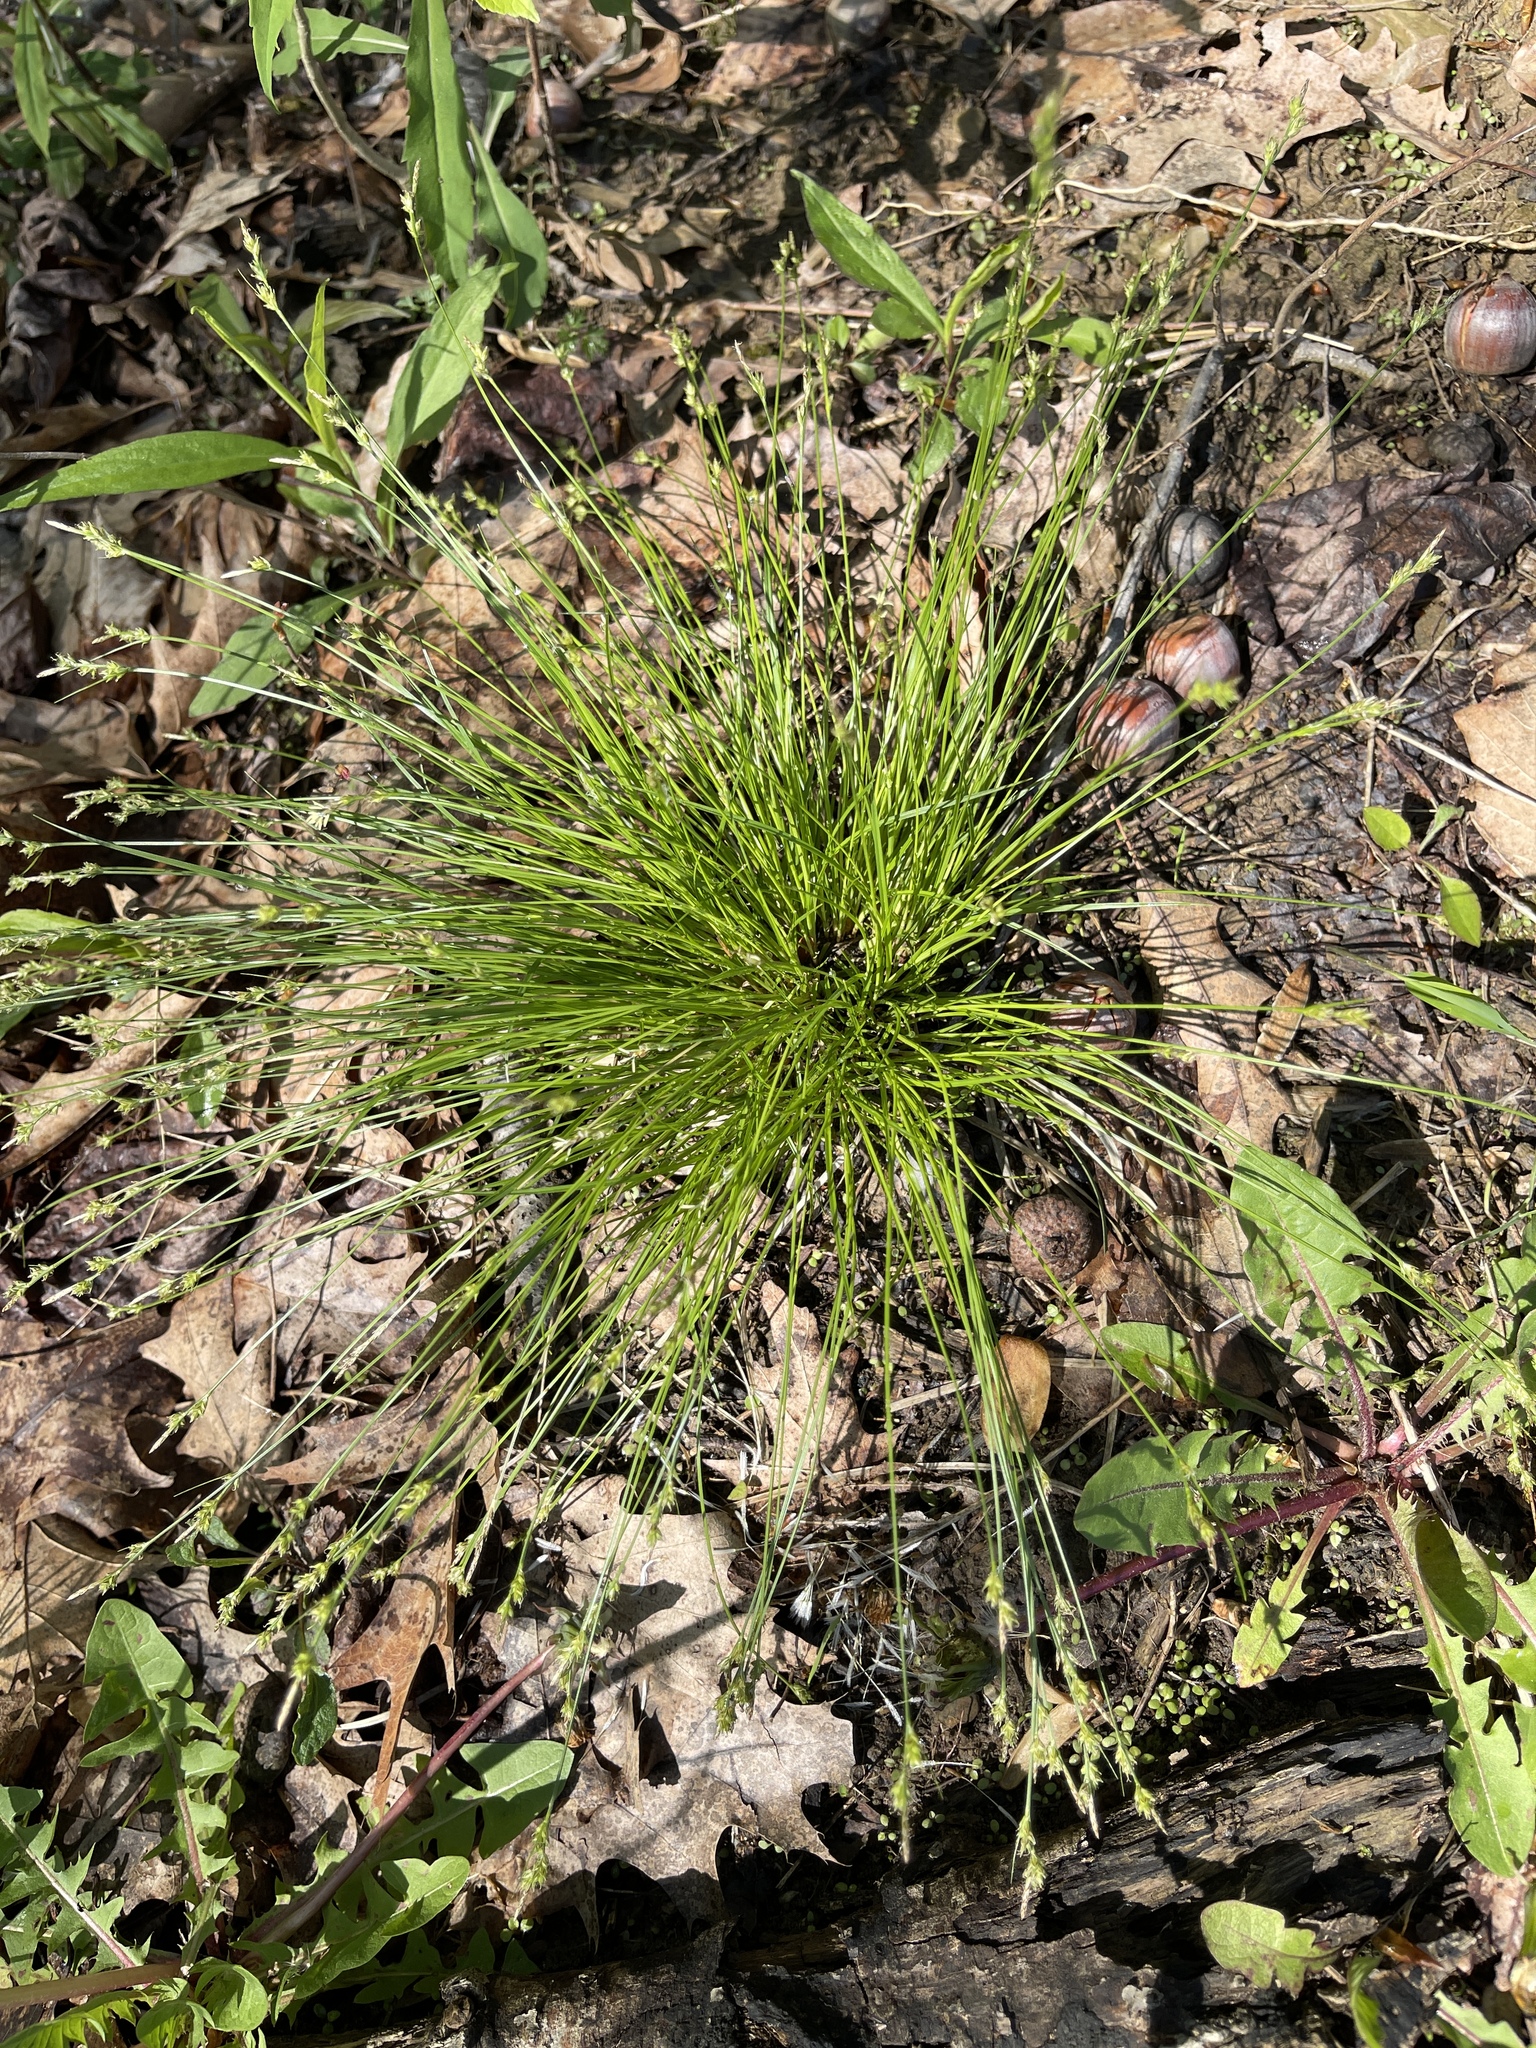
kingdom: Plantae
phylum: Tracheophyta
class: Liliopsida
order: Poales
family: Cyperaceae
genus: Carex
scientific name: Carex albicans
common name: Bellow-beaked sedge
